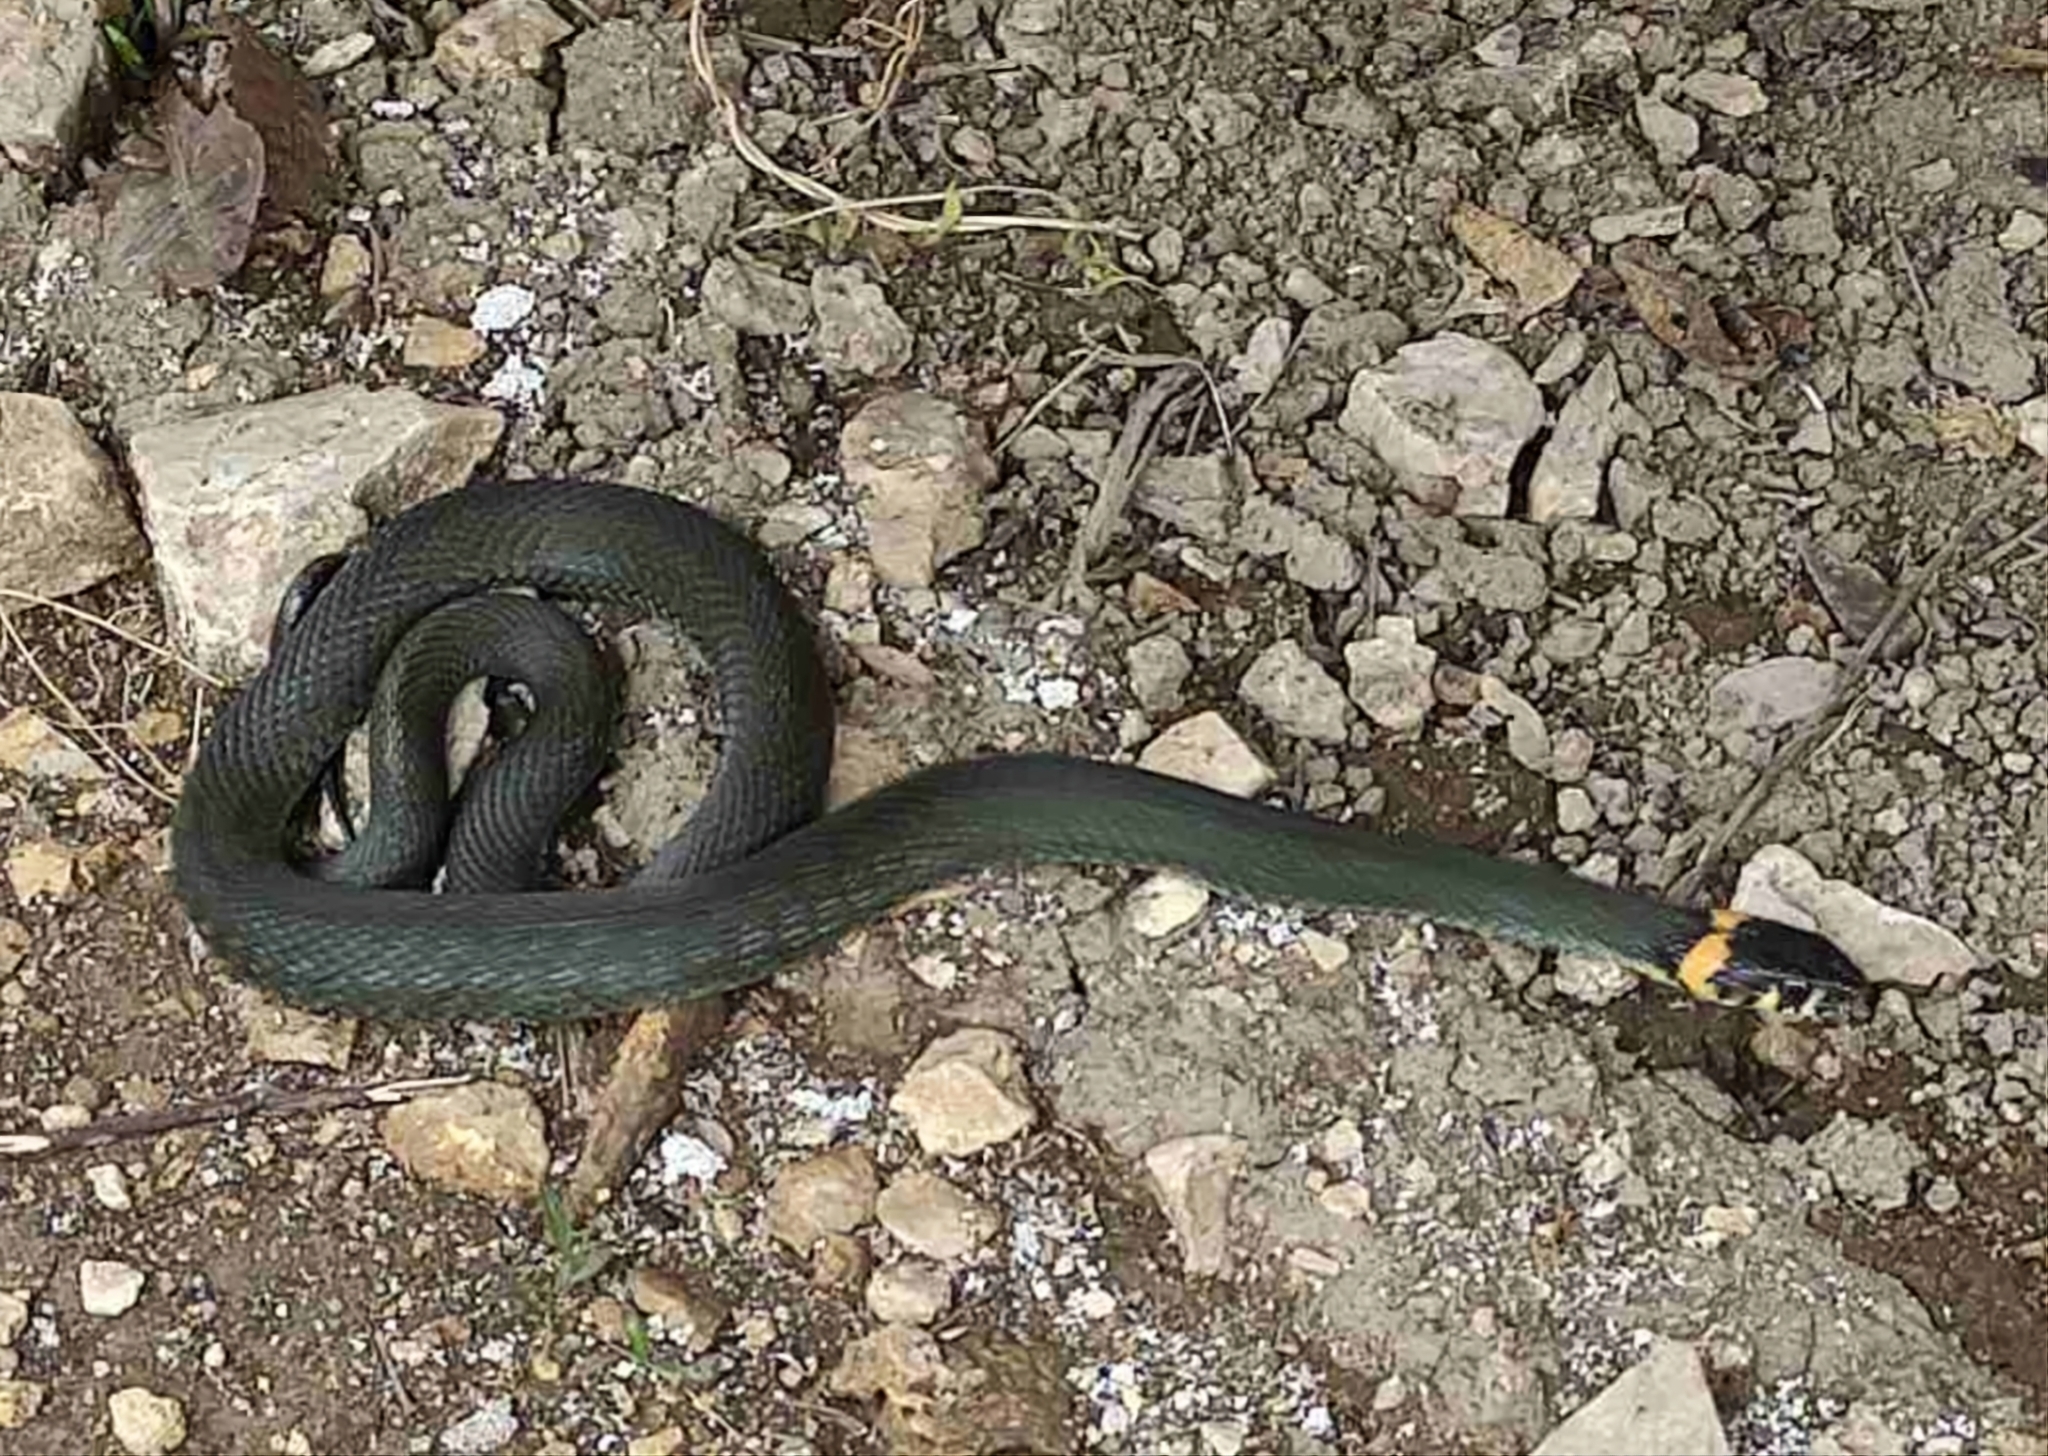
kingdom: Animalia
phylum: Chordata
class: Squamata
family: Colubridae
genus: Natrix
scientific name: Natrix natrix
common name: Grass snake
